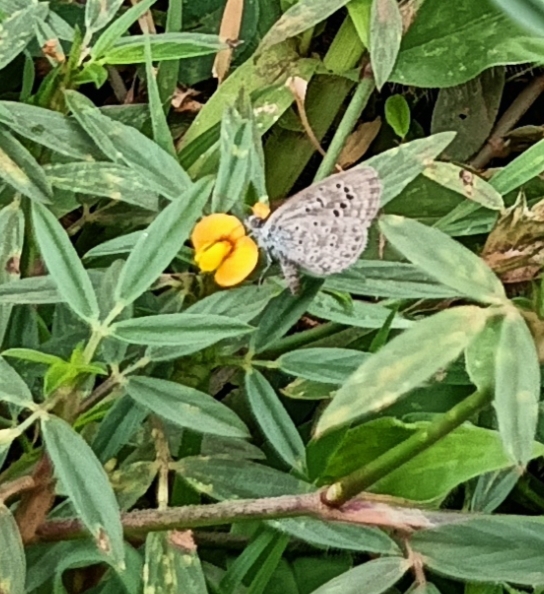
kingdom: Animalia
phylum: Arthropoda
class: Insecta
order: Lepidoptera
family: Lycaenidae
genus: Zizeeria
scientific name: Zizeeria karsandra
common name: Dark grass blue
